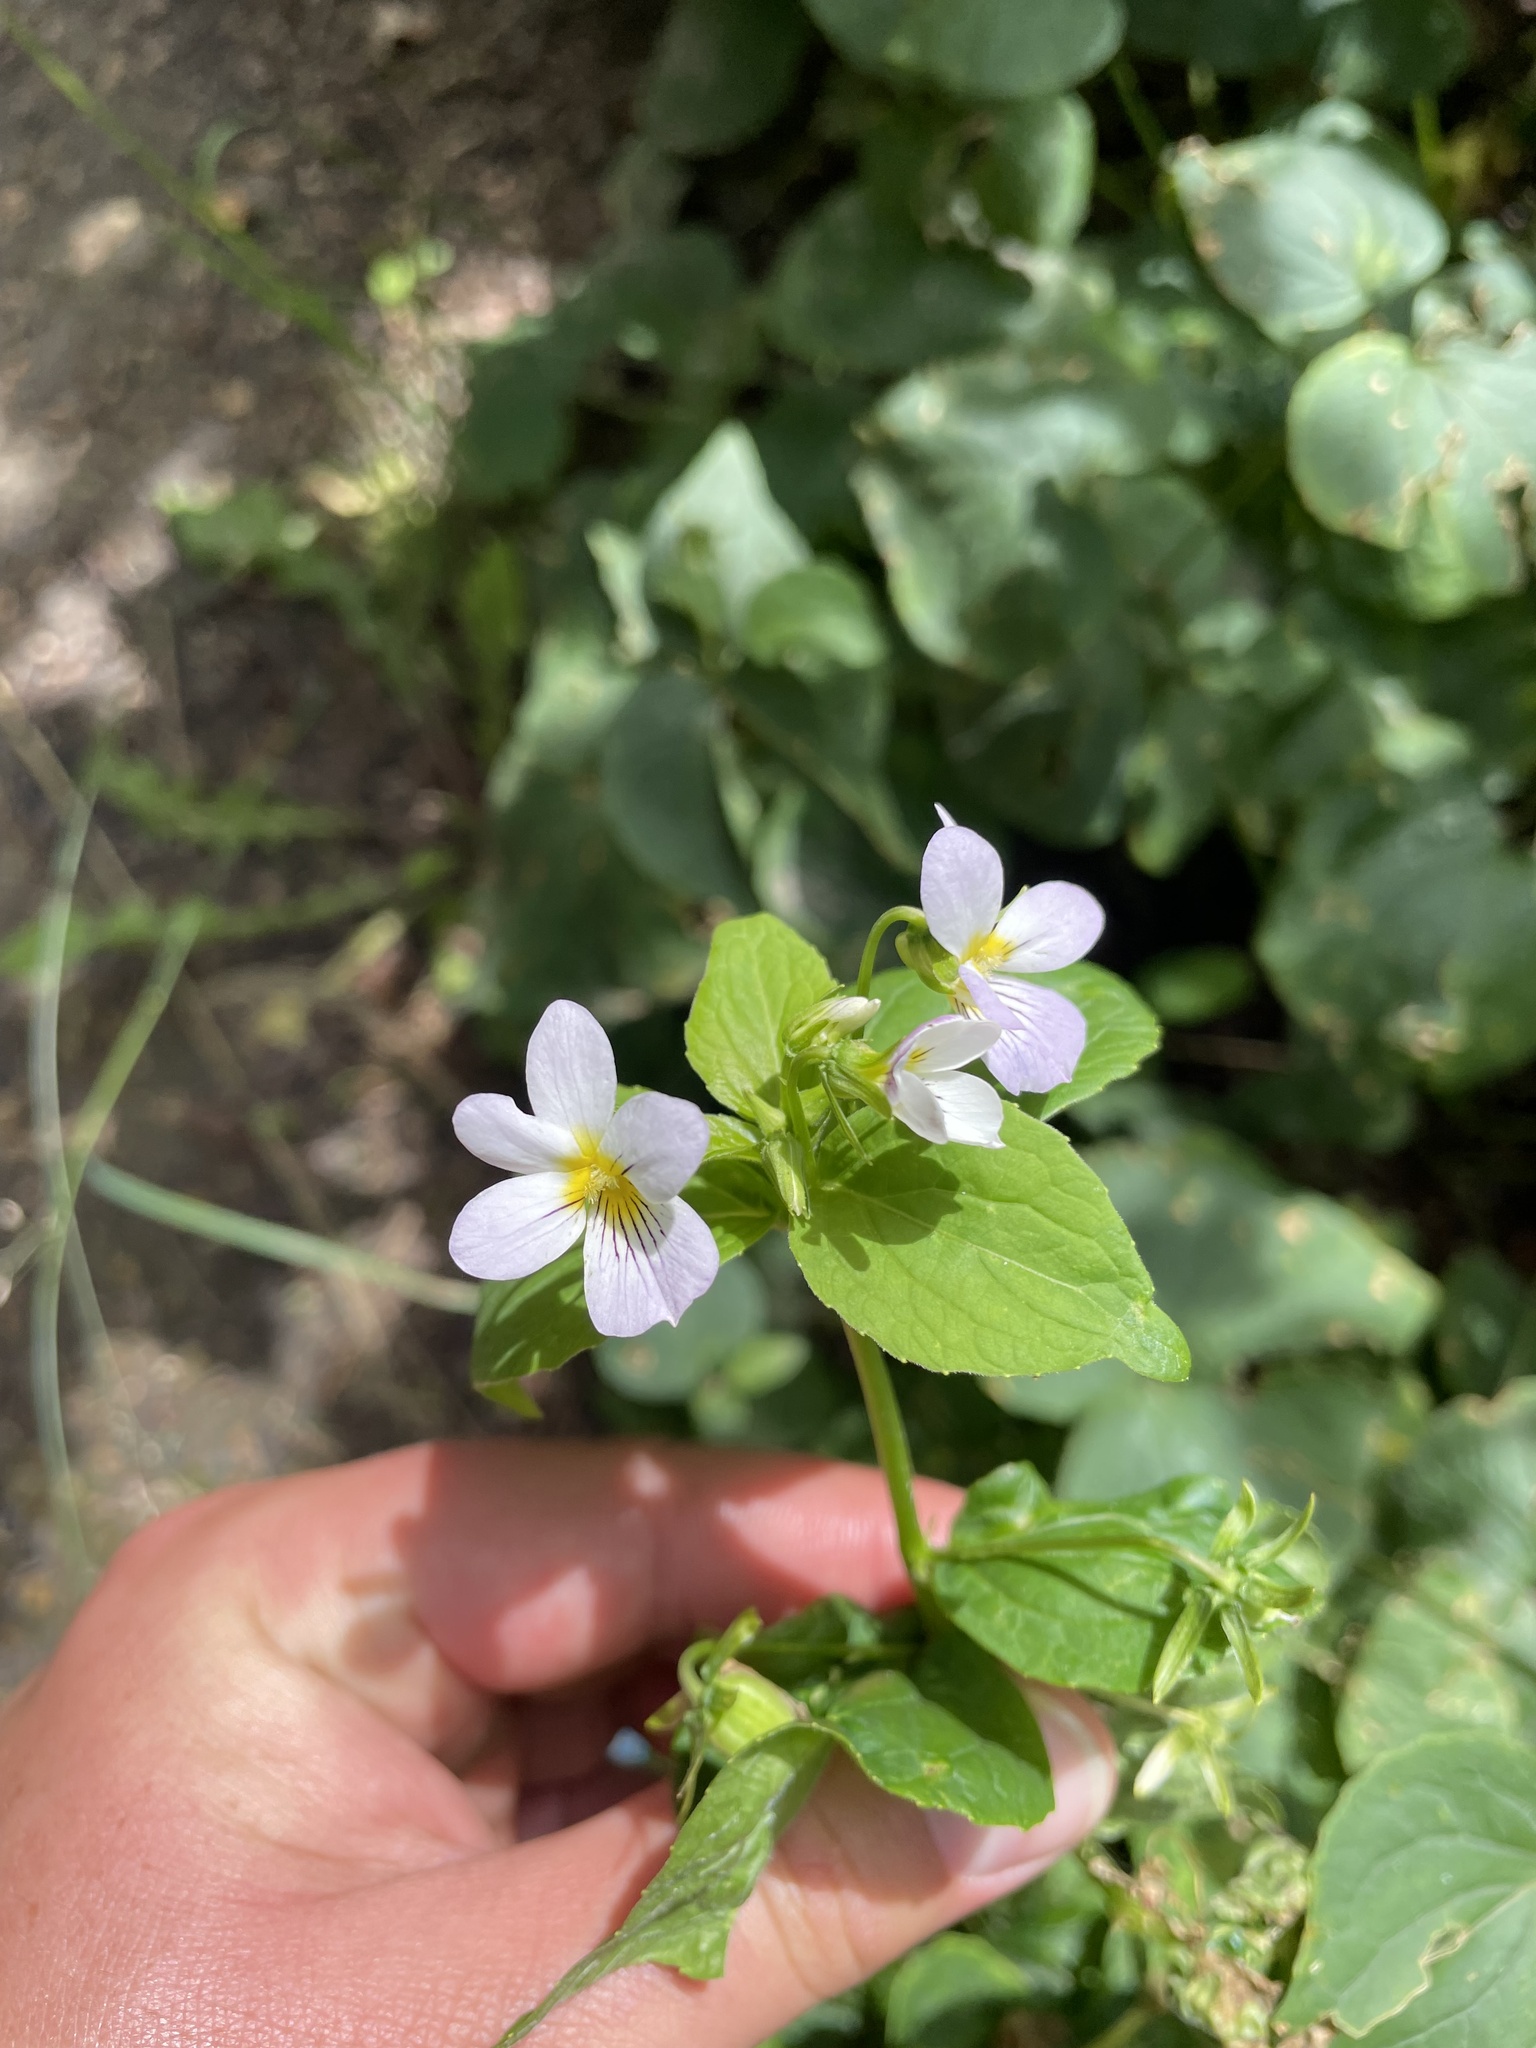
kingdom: Plantae
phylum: Tracheophyta
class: Magnoliopsida
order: Malpighiales
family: Violaceae
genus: Viola
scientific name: Viola canadensis
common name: Canada violet
